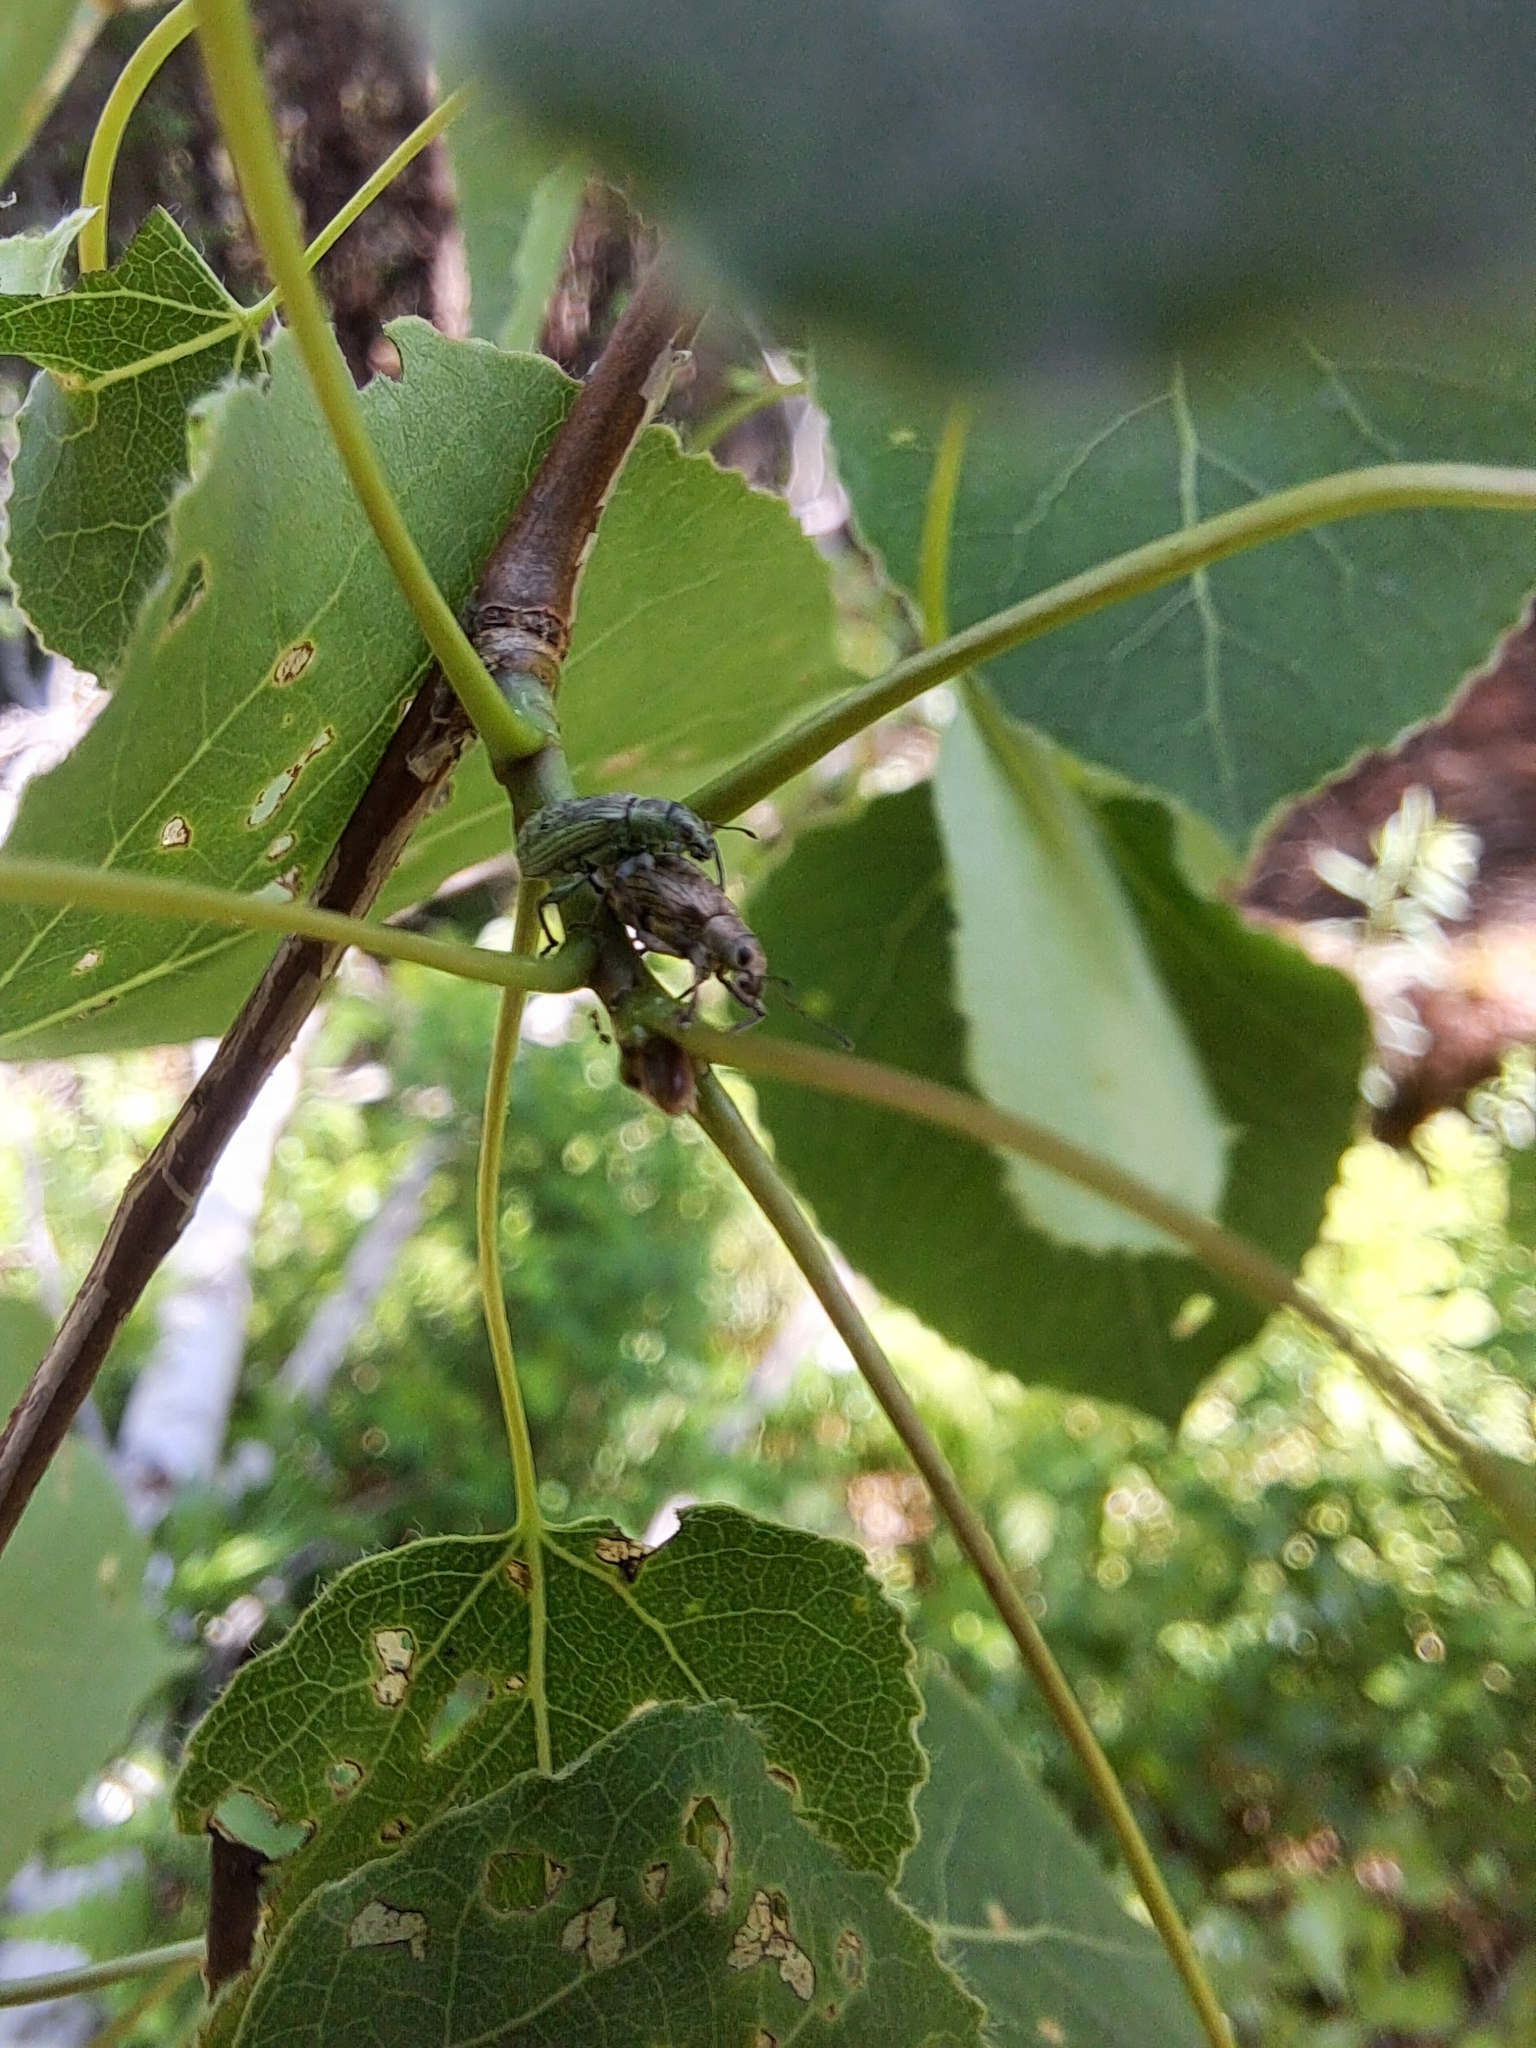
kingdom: Animalia
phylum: Arthropoda
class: Insecta
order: Coleoptera
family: Curculionidae
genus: Polydrusus
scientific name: Polydrusus formosus
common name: Weevil
